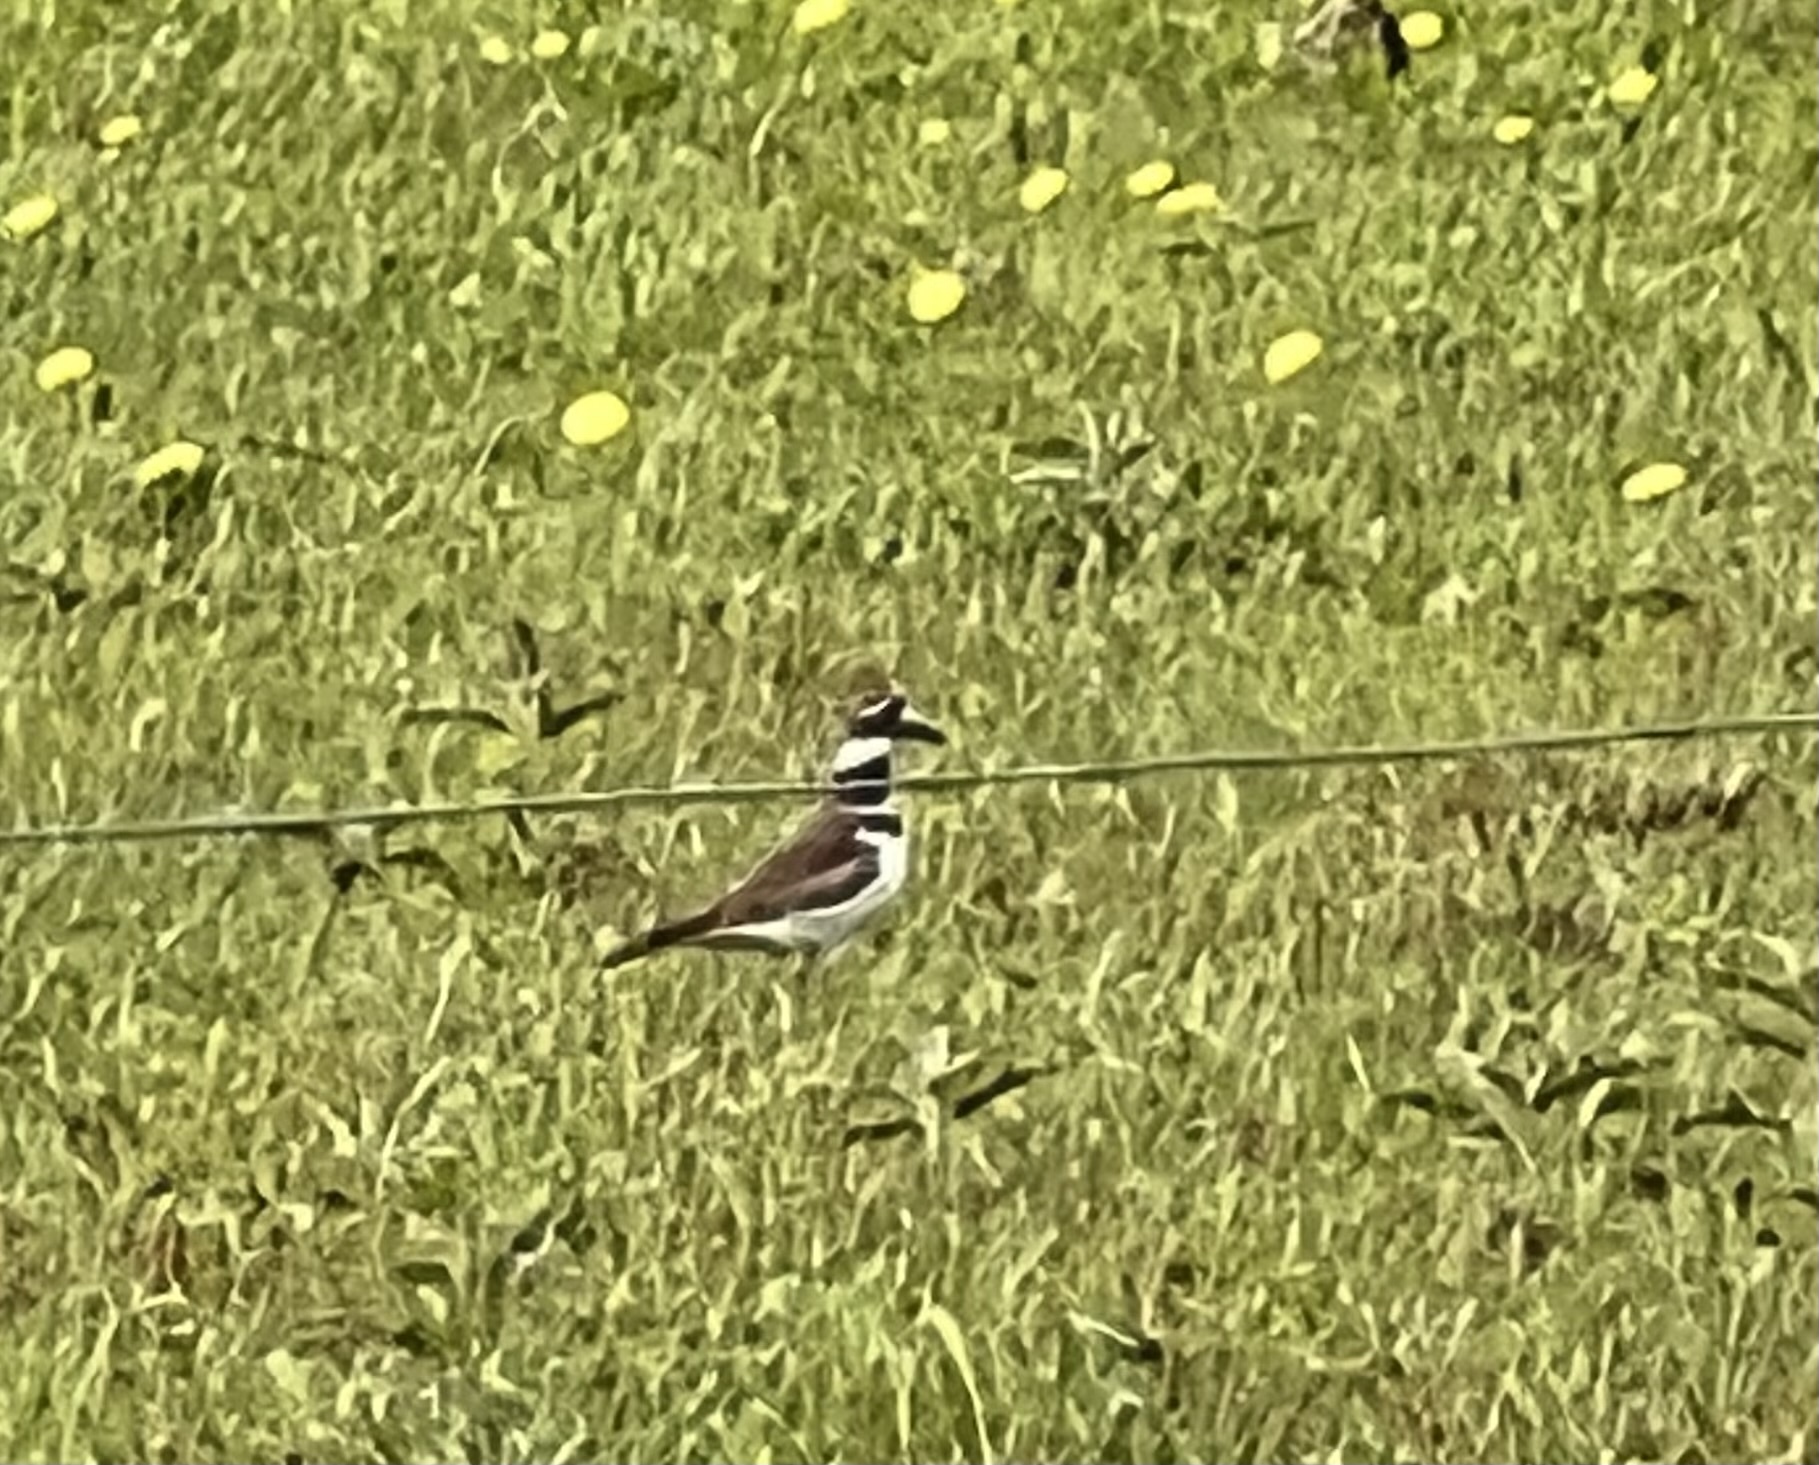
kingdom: Animalia
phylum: Chordata
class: Aves
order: Charadriiformes
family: Charadriidae
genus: Charadrius
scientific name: Charadrius vociferus
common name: Killdeer
